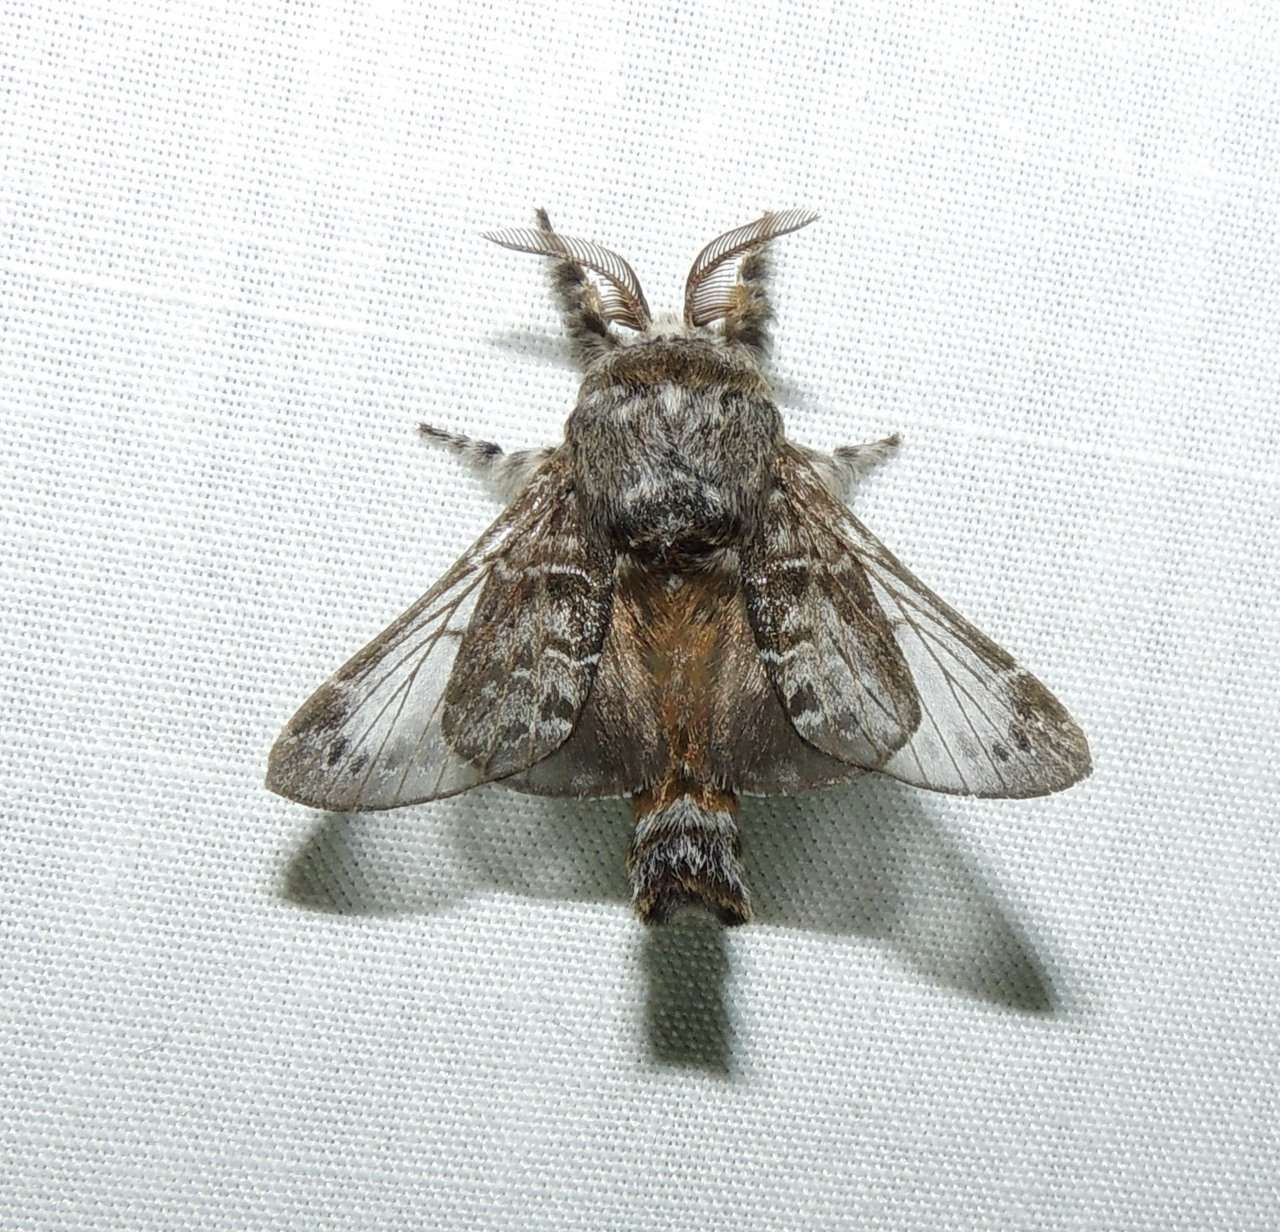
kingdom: Animalia
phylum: Arthropoda
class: Insecta
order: Lepidoptera
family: Lasiocampidae
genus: Genduara
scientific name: Genduara subnotata
